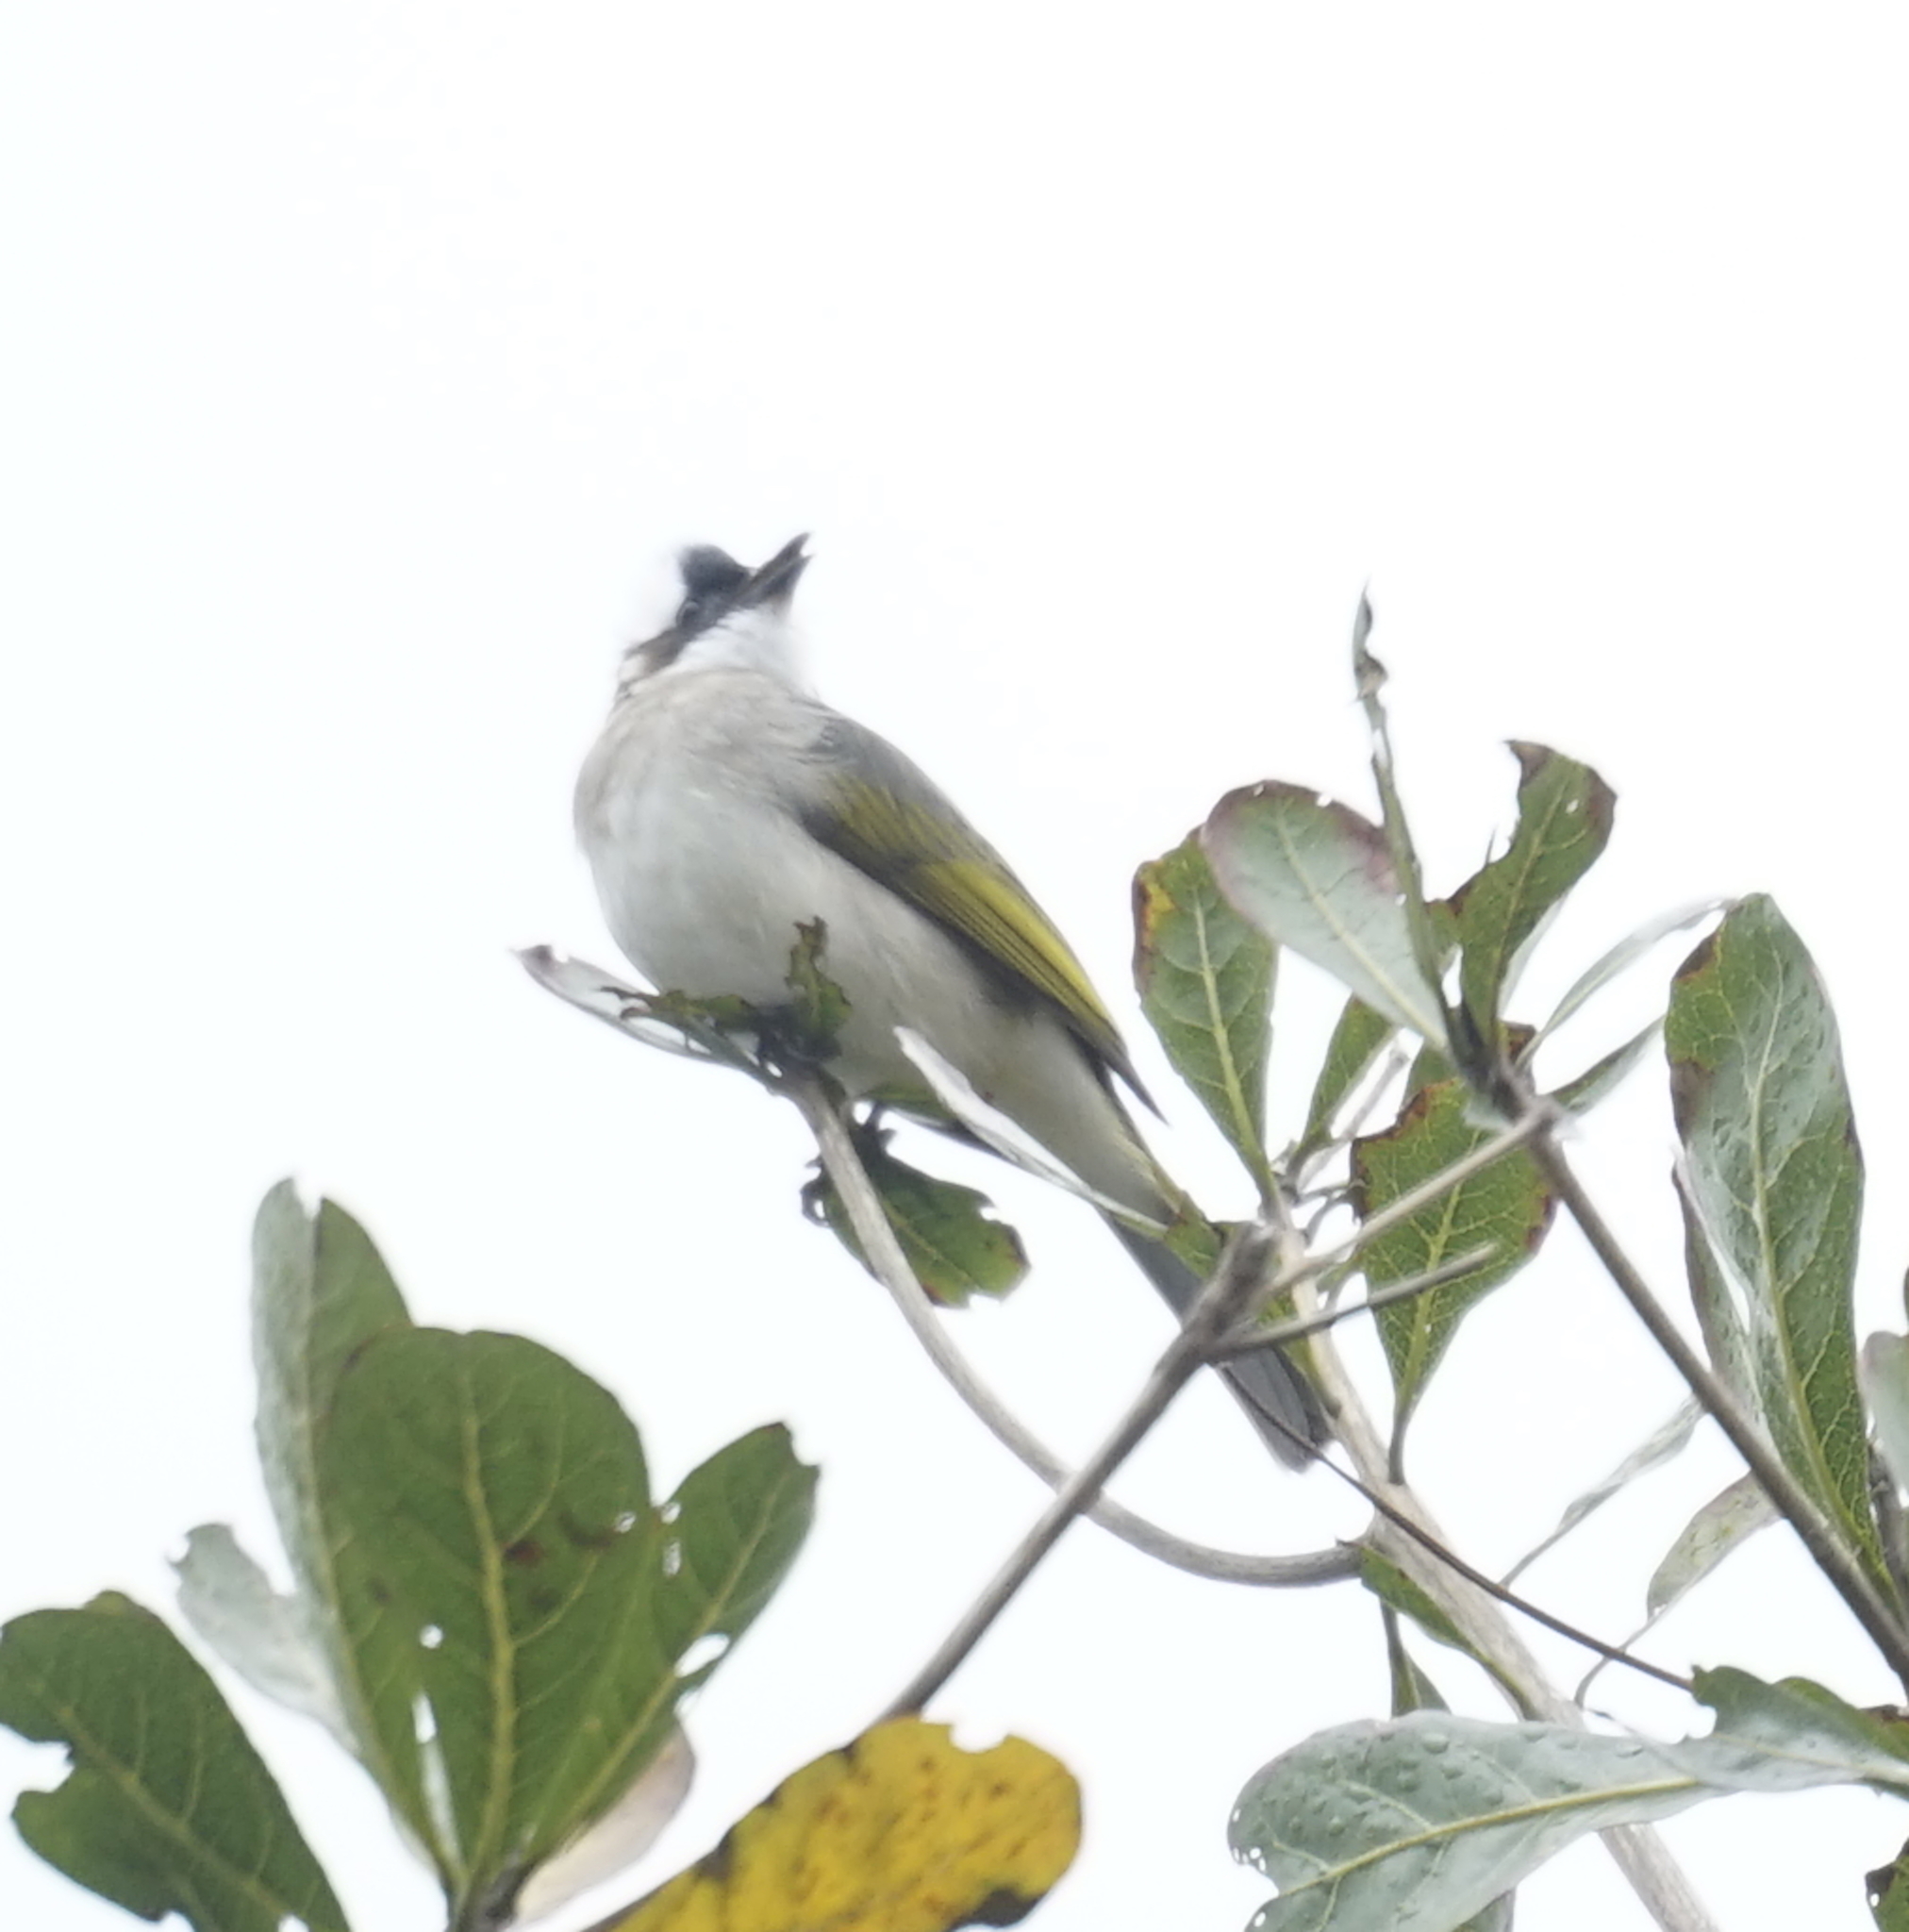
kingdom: Animalia
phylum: Chordata
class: Aves
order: Passeriformes
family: Pycnonotidae
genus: Pycnonotus
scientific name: Pycnonotus sinensis
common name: Light-vented bulbul
